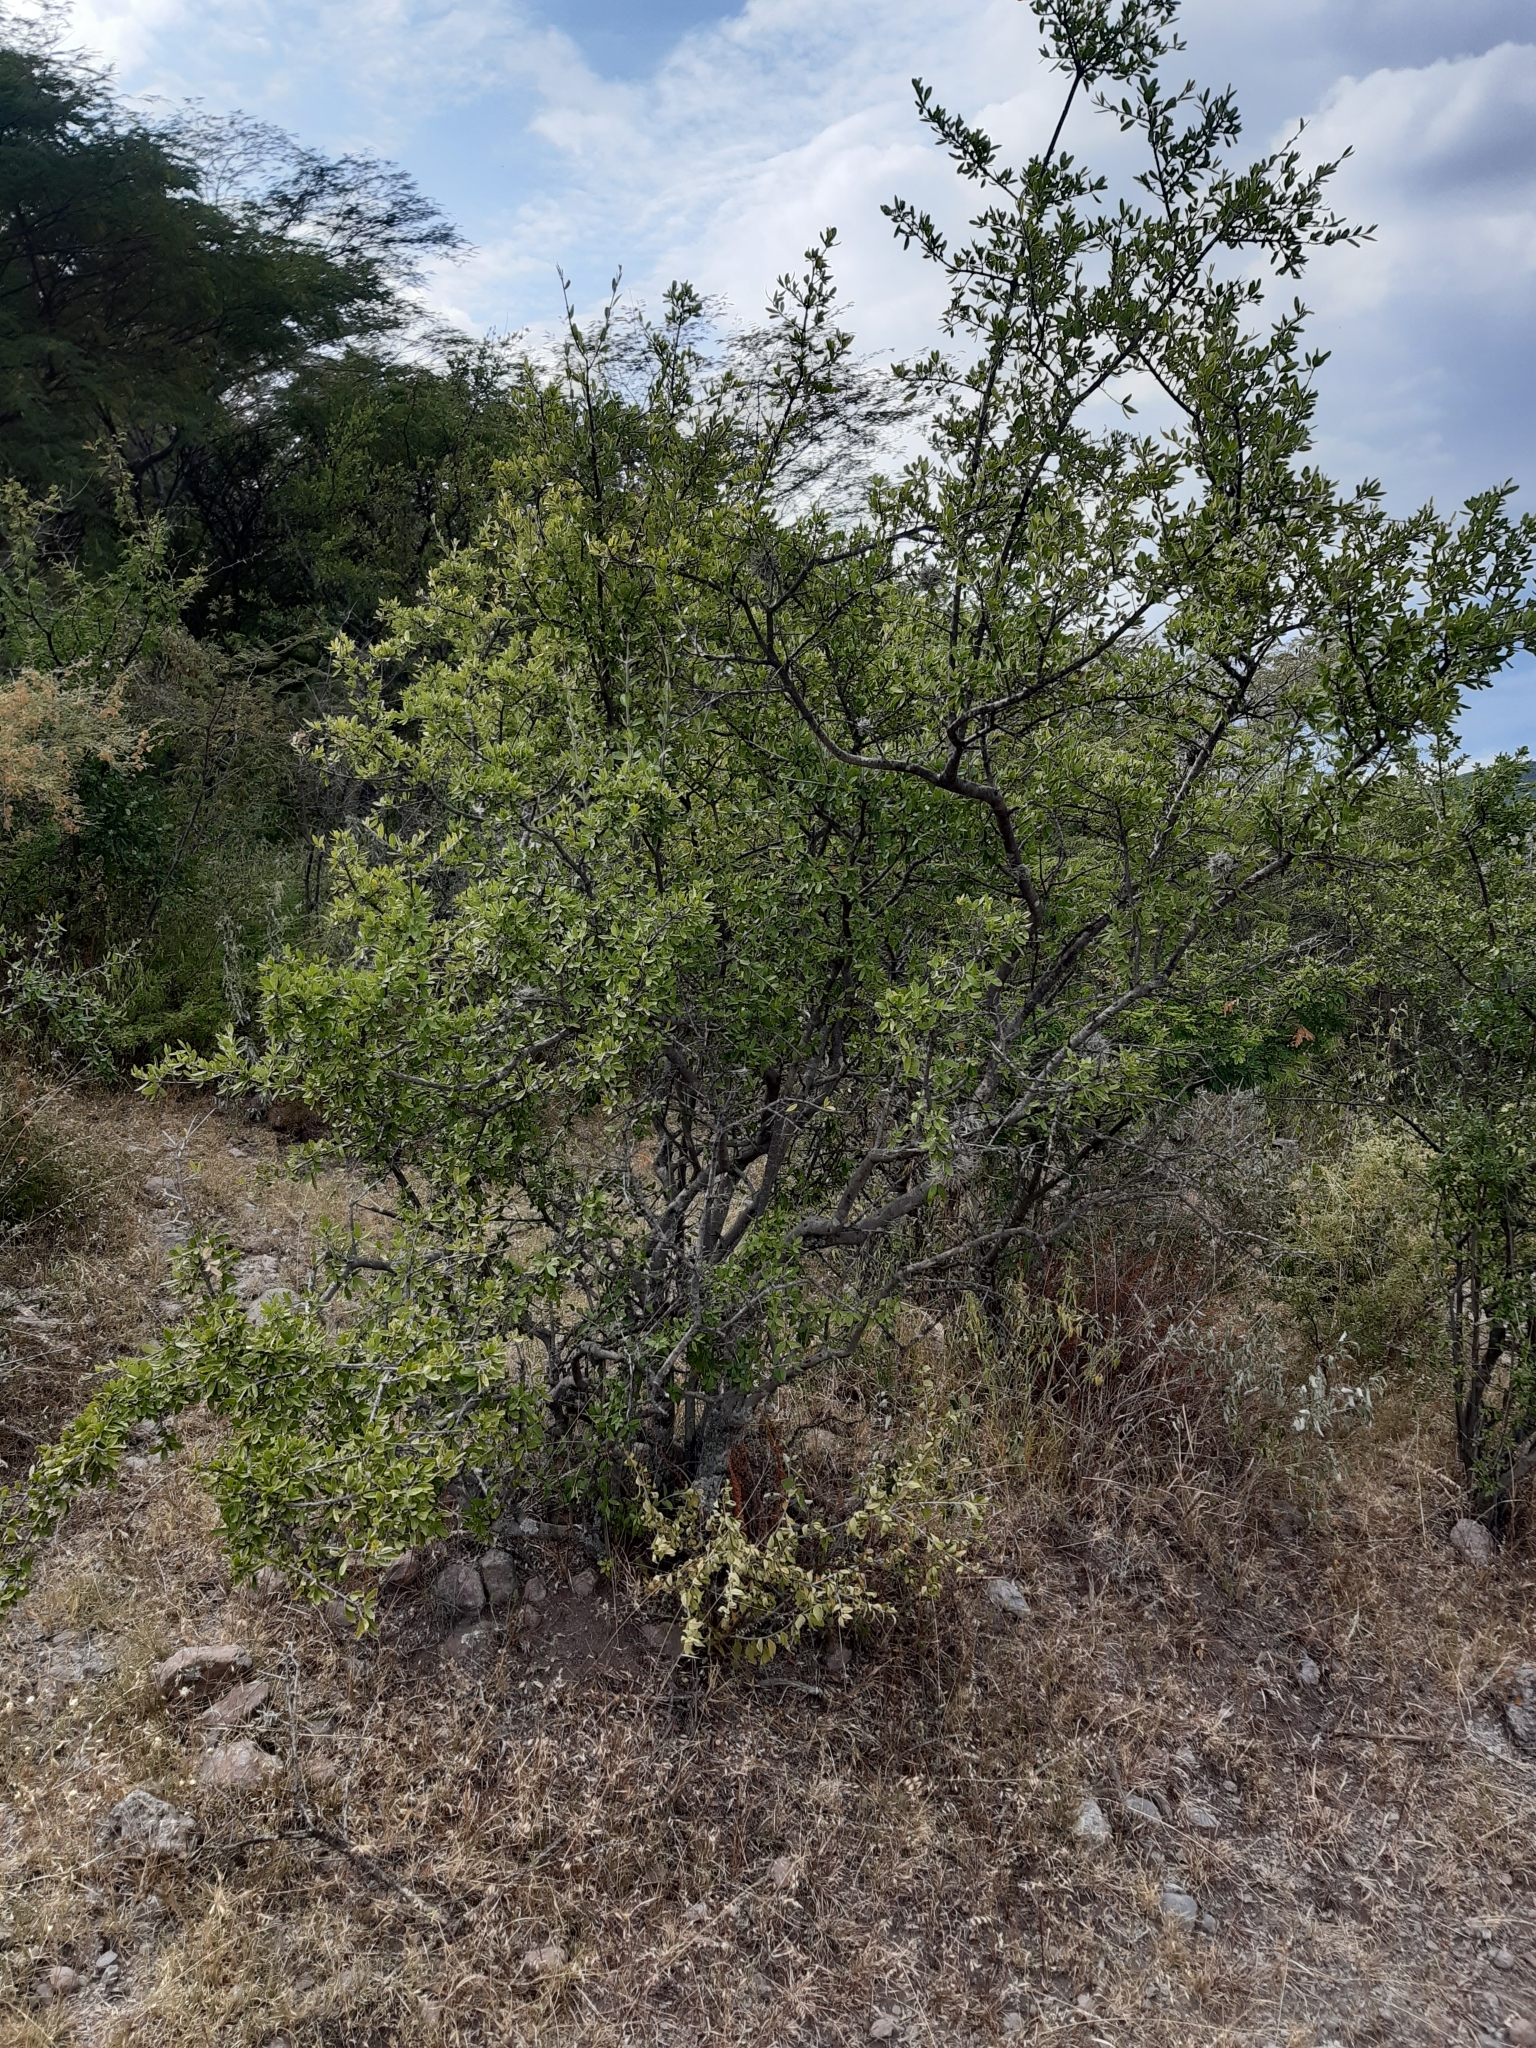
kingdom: Plantae
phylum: Tracheophyta
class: Magnoliopsida
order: Lamiales
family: Oleaceae
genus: Forestiera
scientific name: Forestiera phillyreoides
